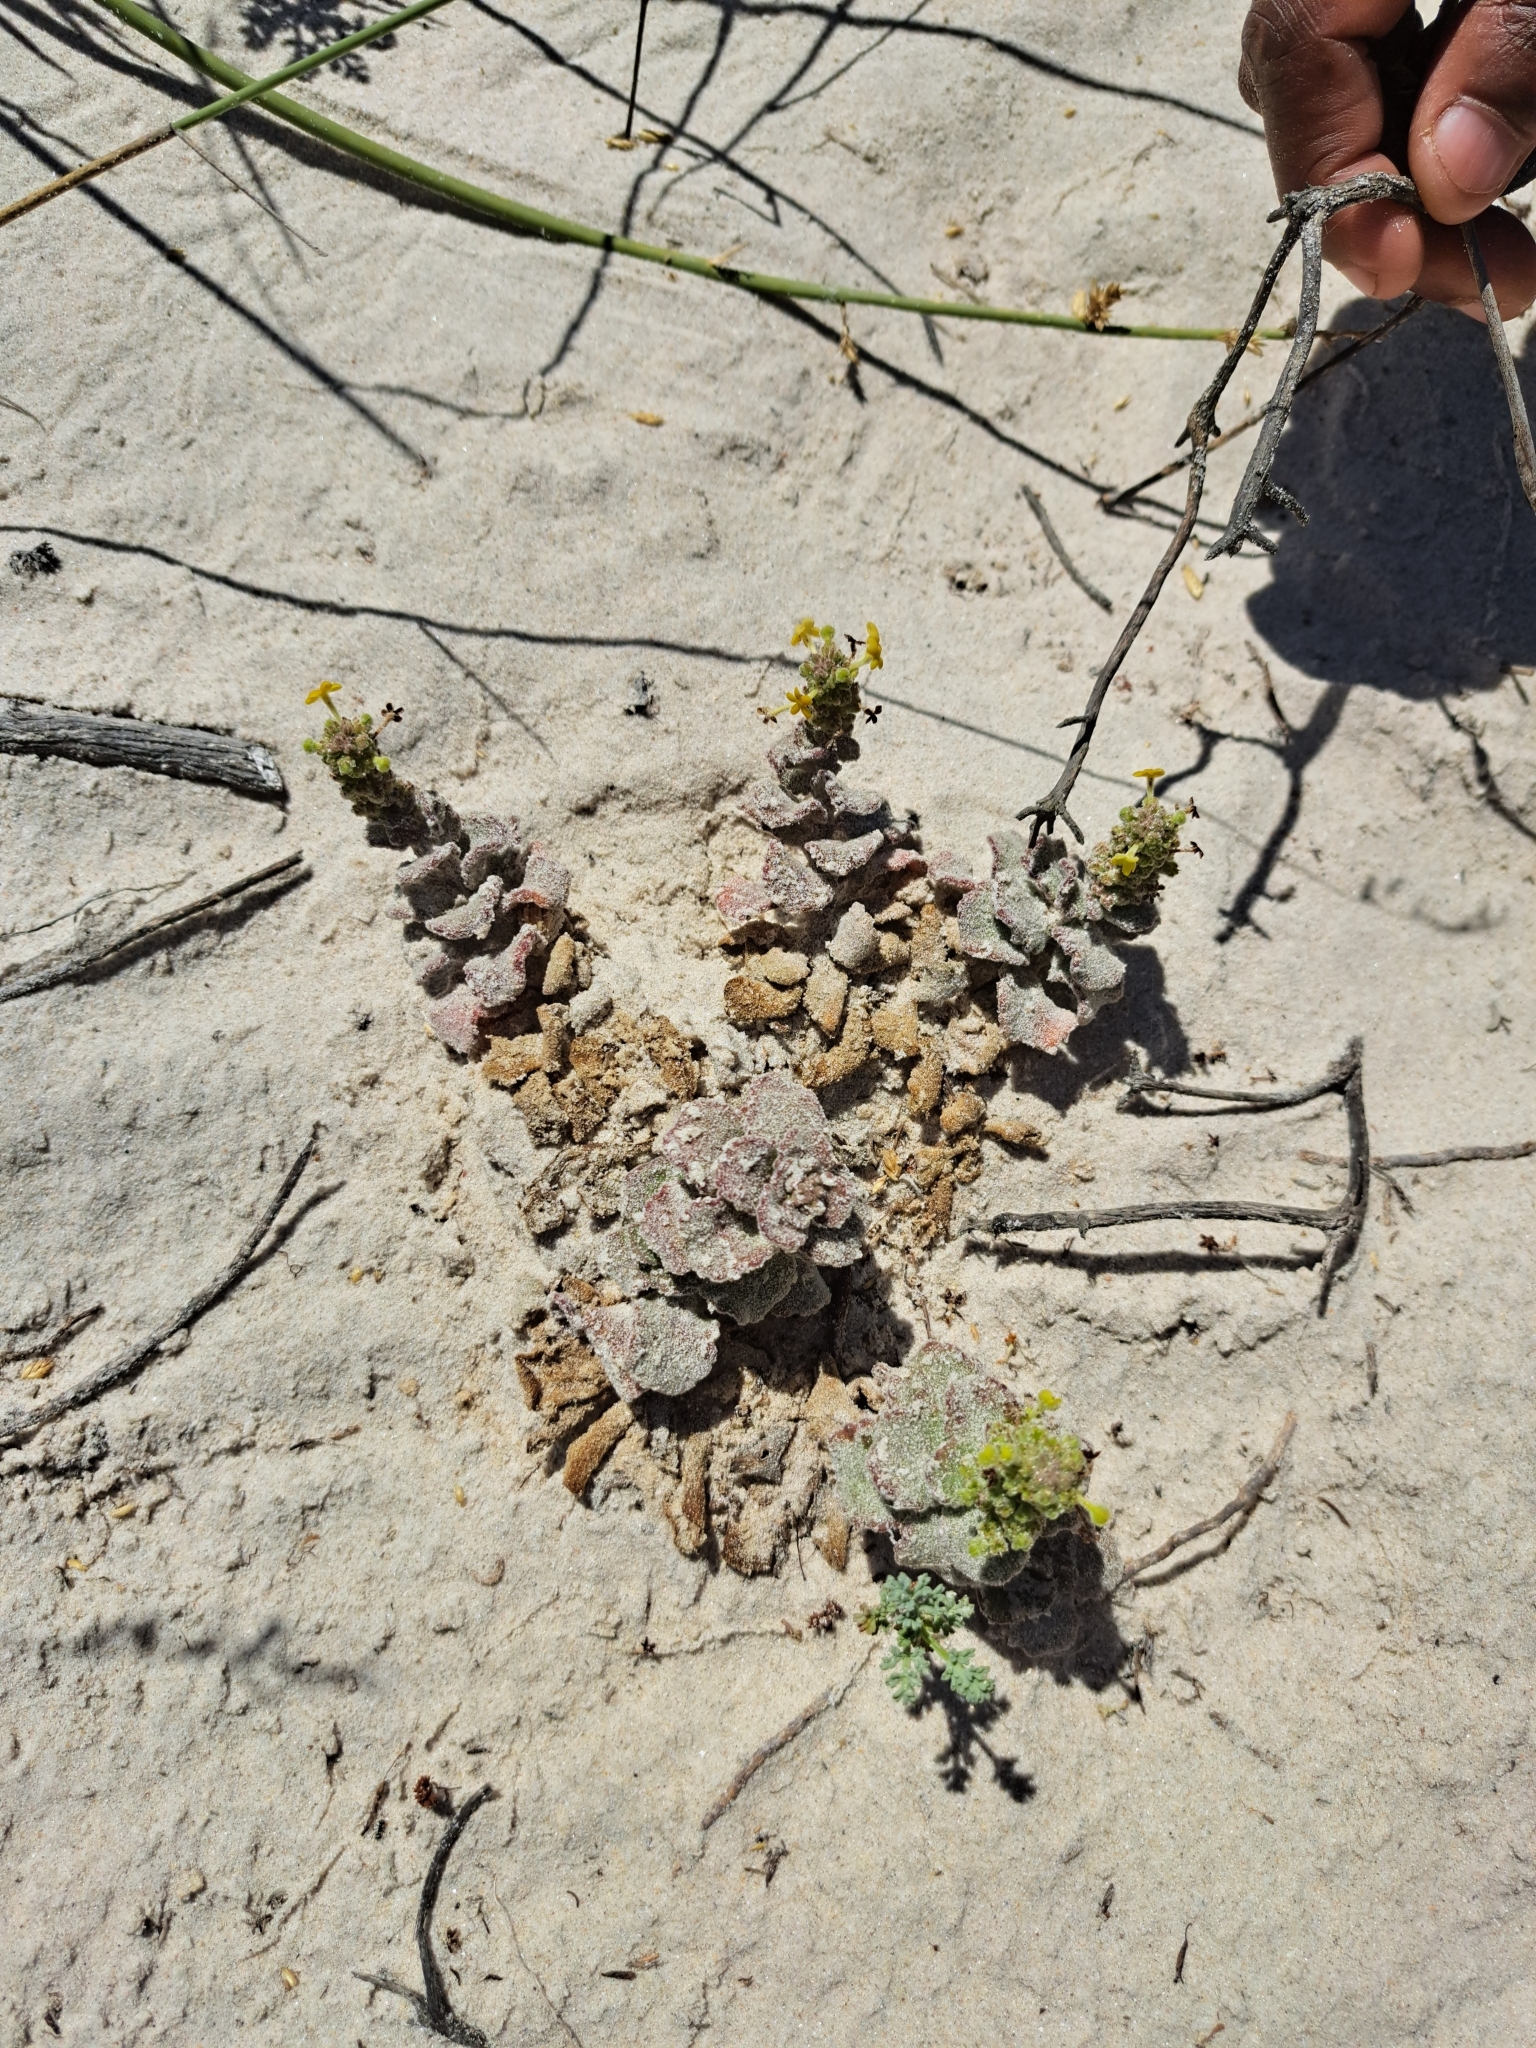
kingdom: Plantae
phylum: Tracheophyta
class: Magnoliopsida
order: Lamiales
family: Scrophulariaceae
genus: Manulea
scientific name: Manulea tomentosa
